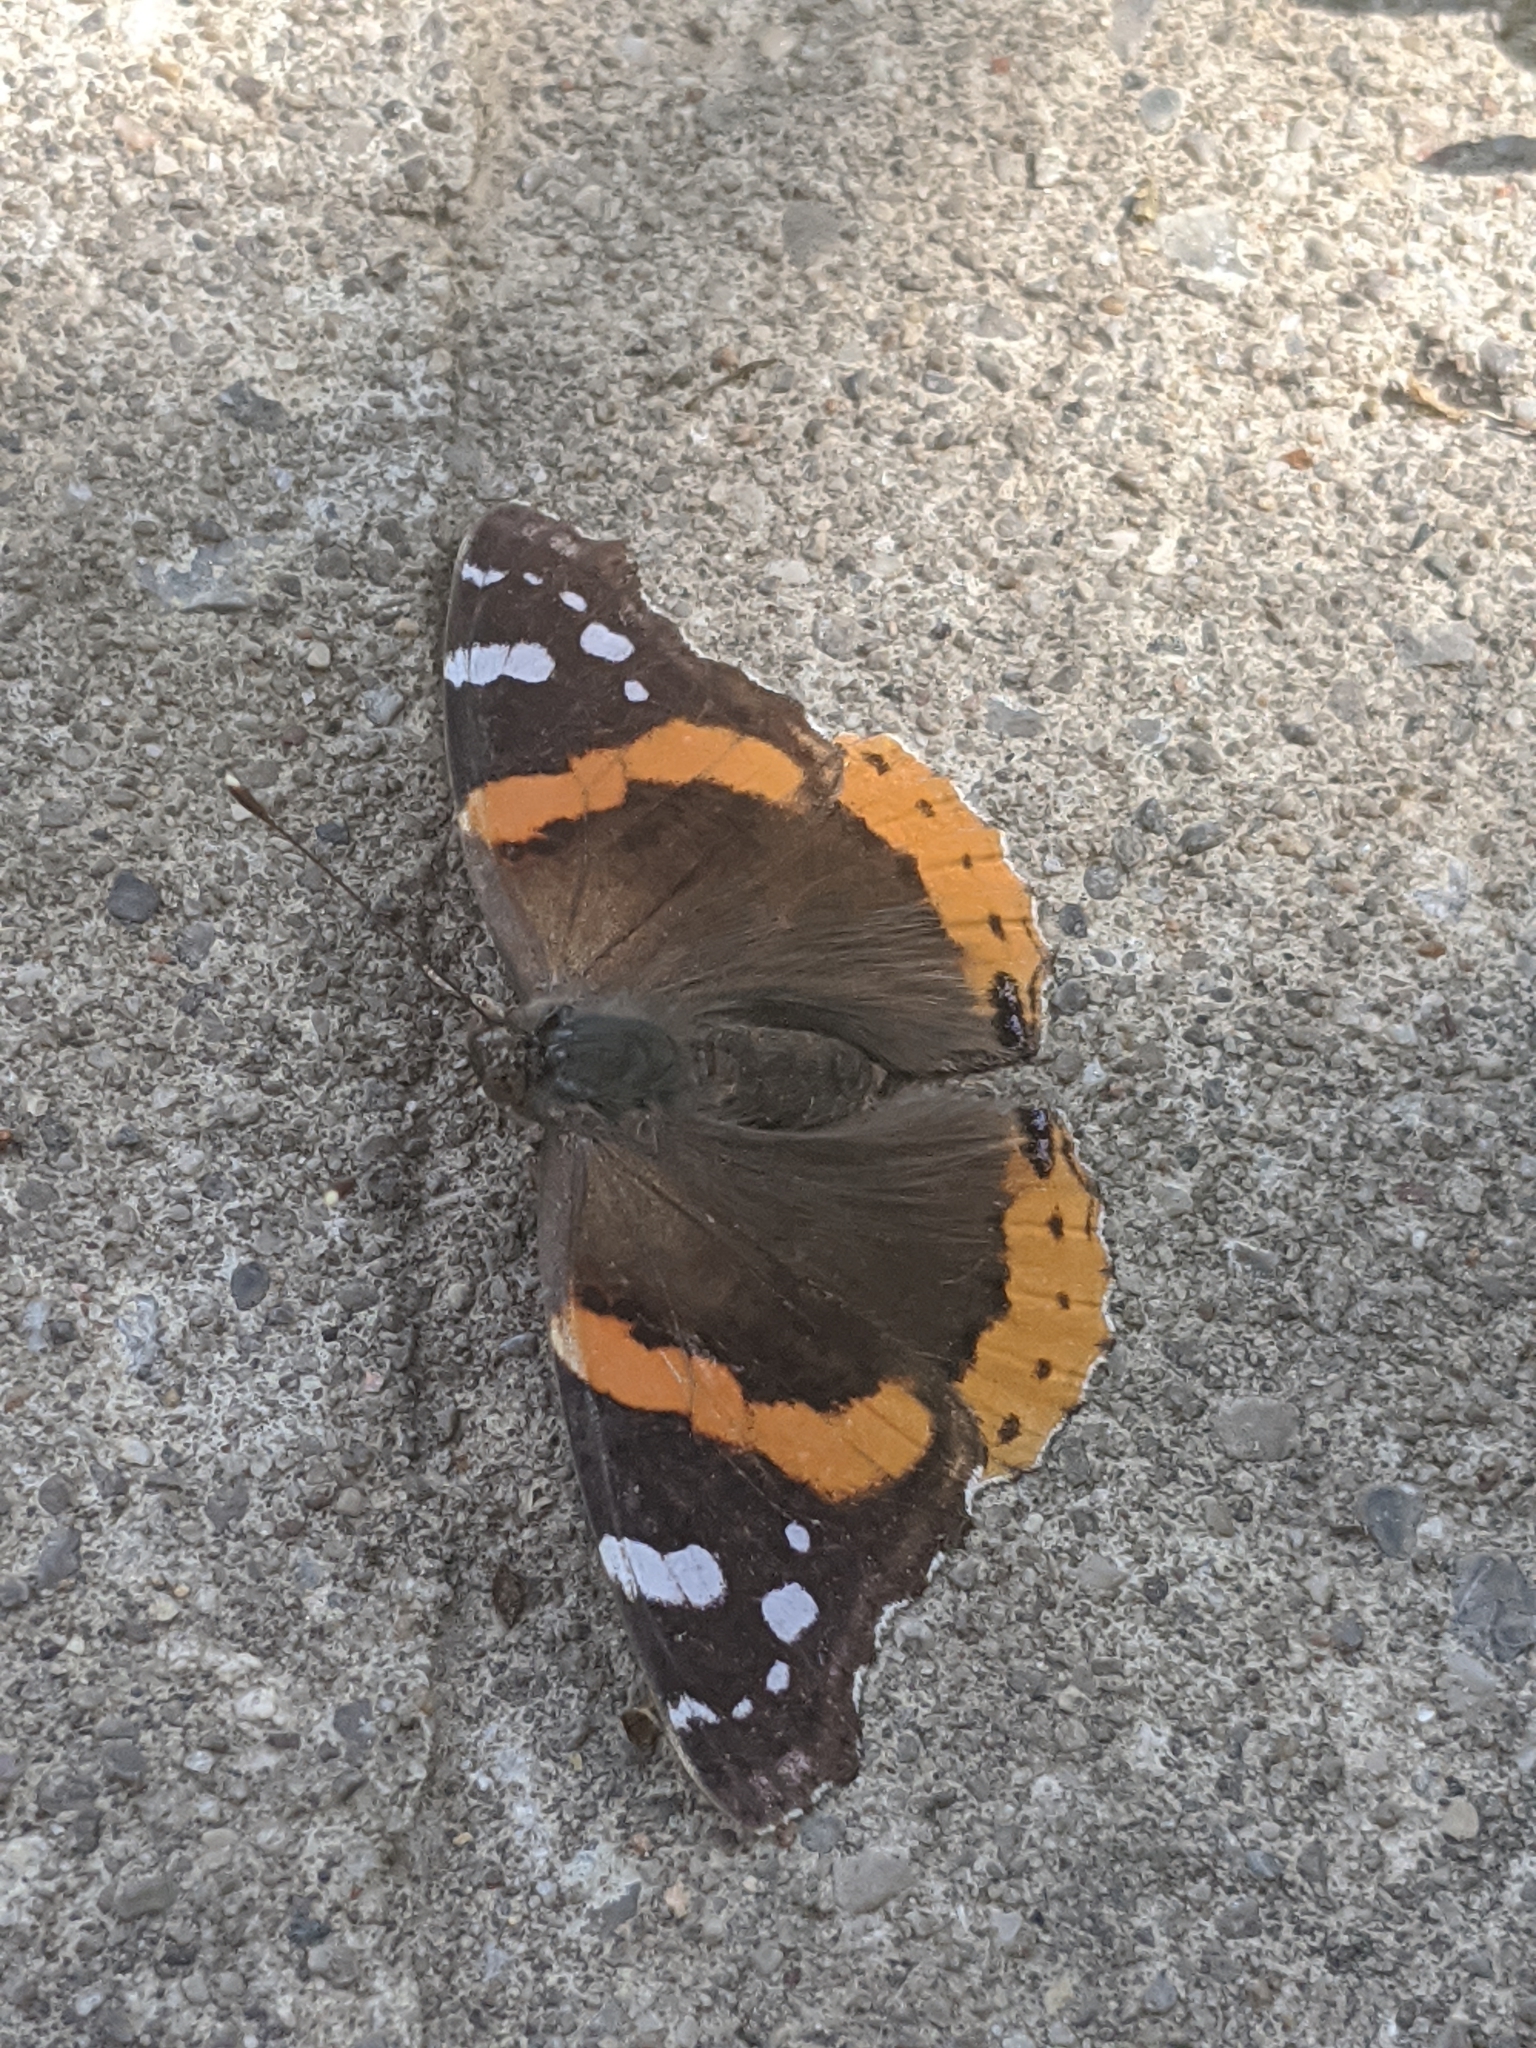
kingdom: Animalia
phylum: Arthropoda
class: Insecta
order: Lepidoptera
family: Nymphalidae
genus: Vanessa
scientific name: Vanessa atalanta
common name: Red admiral
